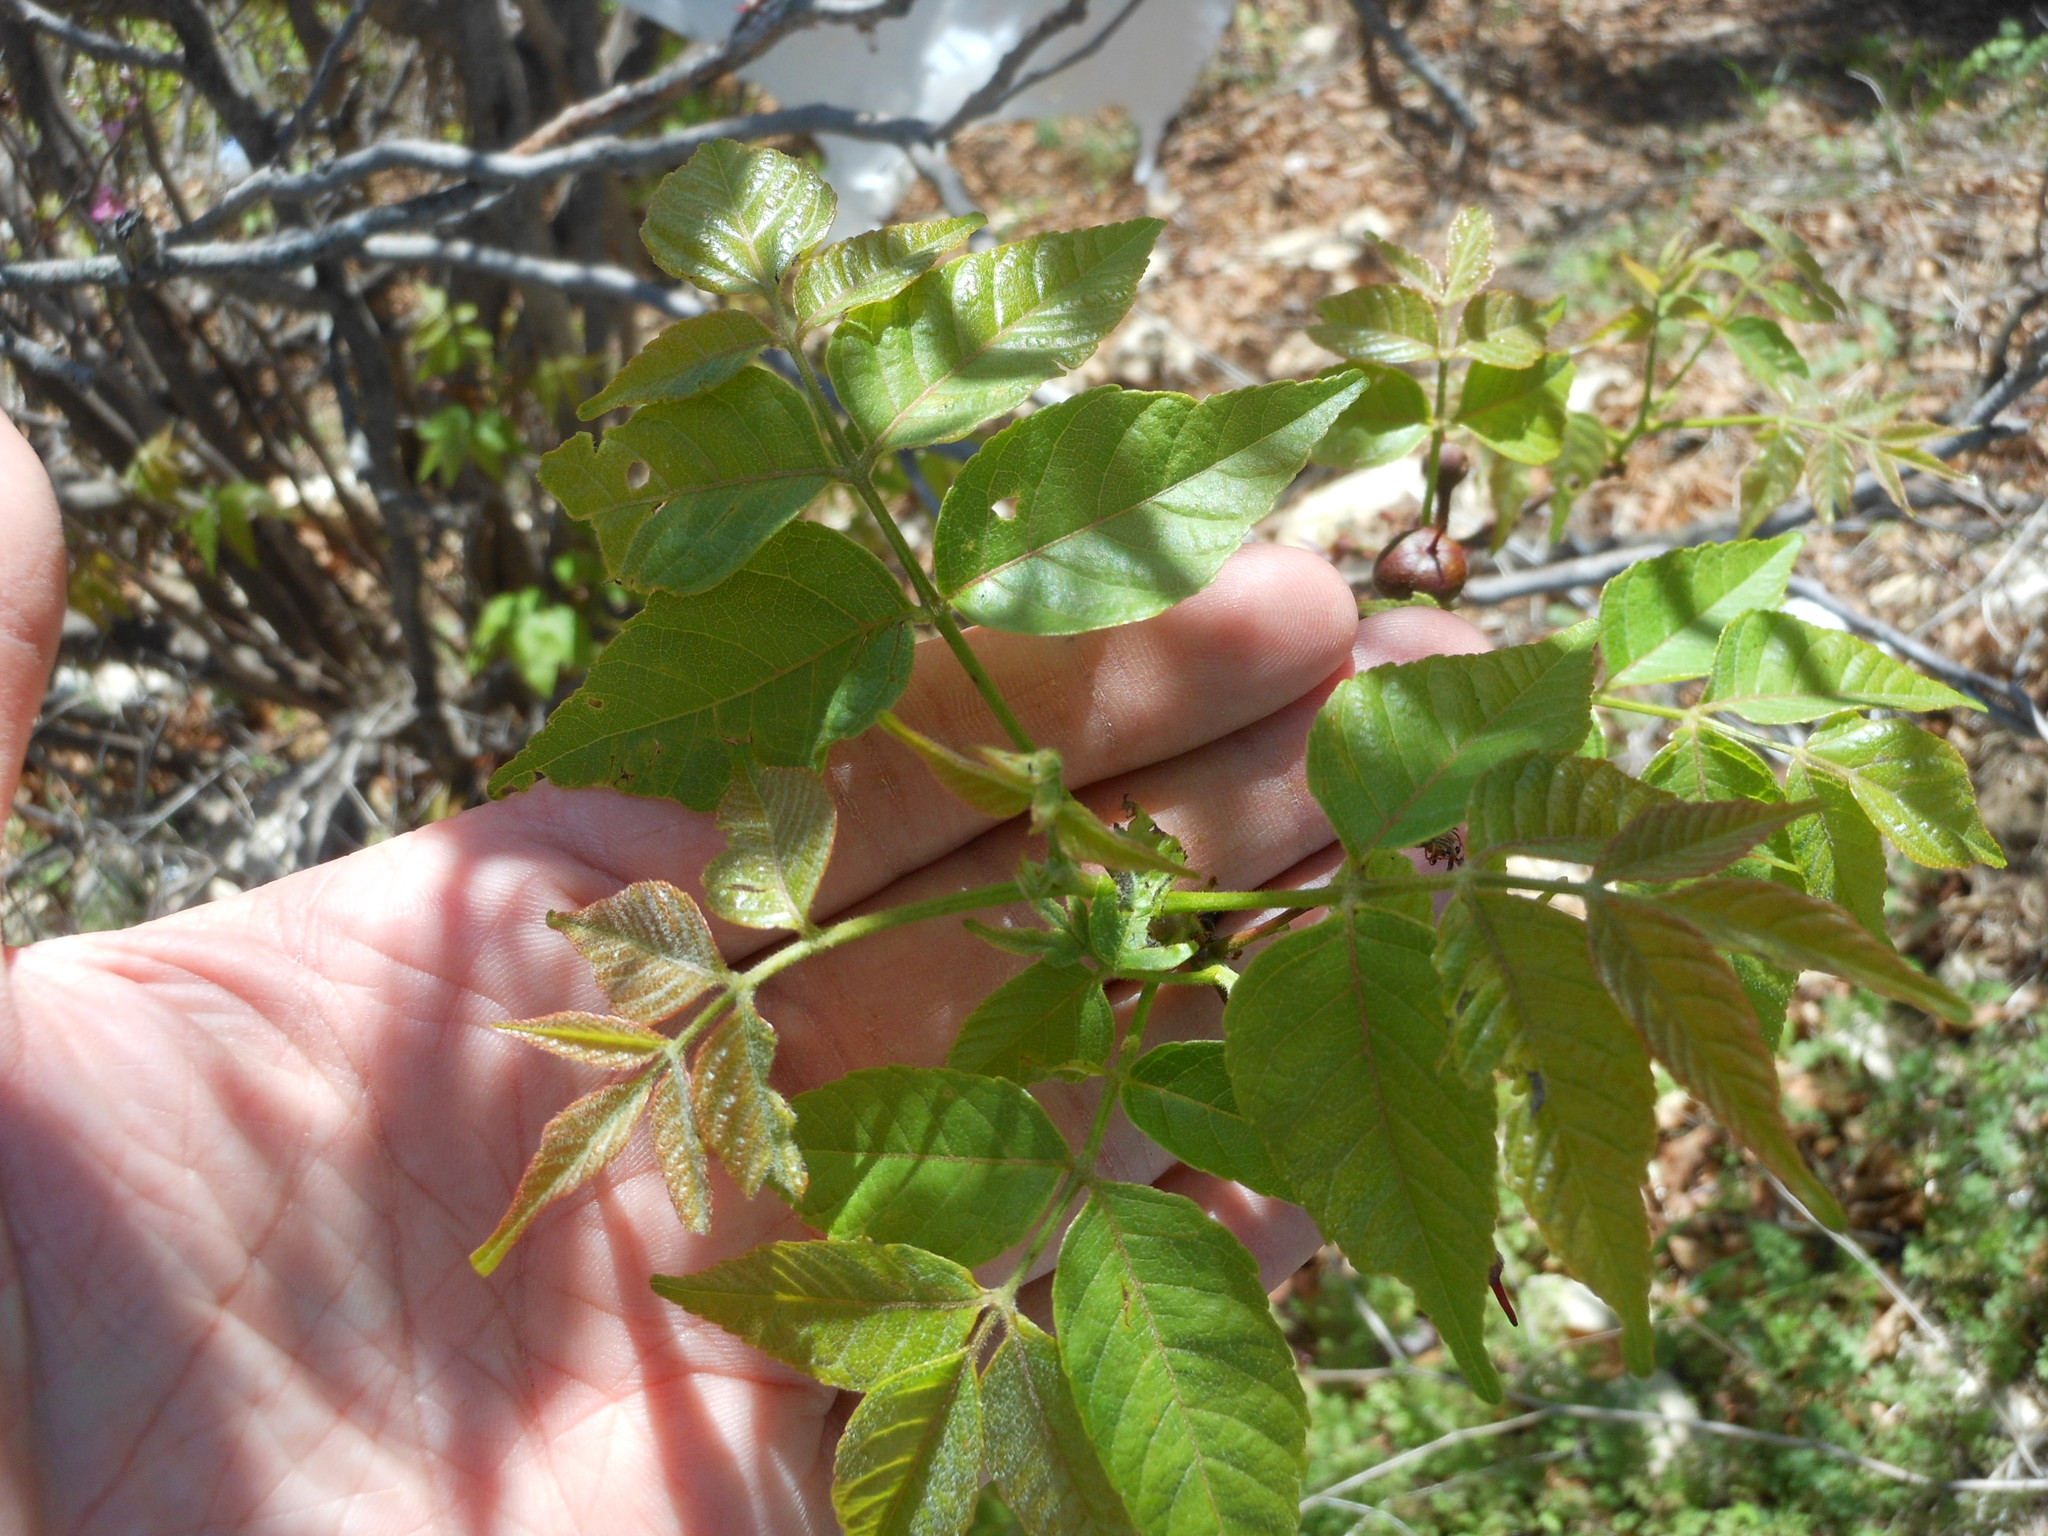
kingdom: Plantae
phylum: Tracheophyta
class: Magnoliopsida
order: Sapindales
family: Sapindaceae
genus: Ungnadia
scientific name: Ungnadia speciosa
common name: Texas-buckeye
